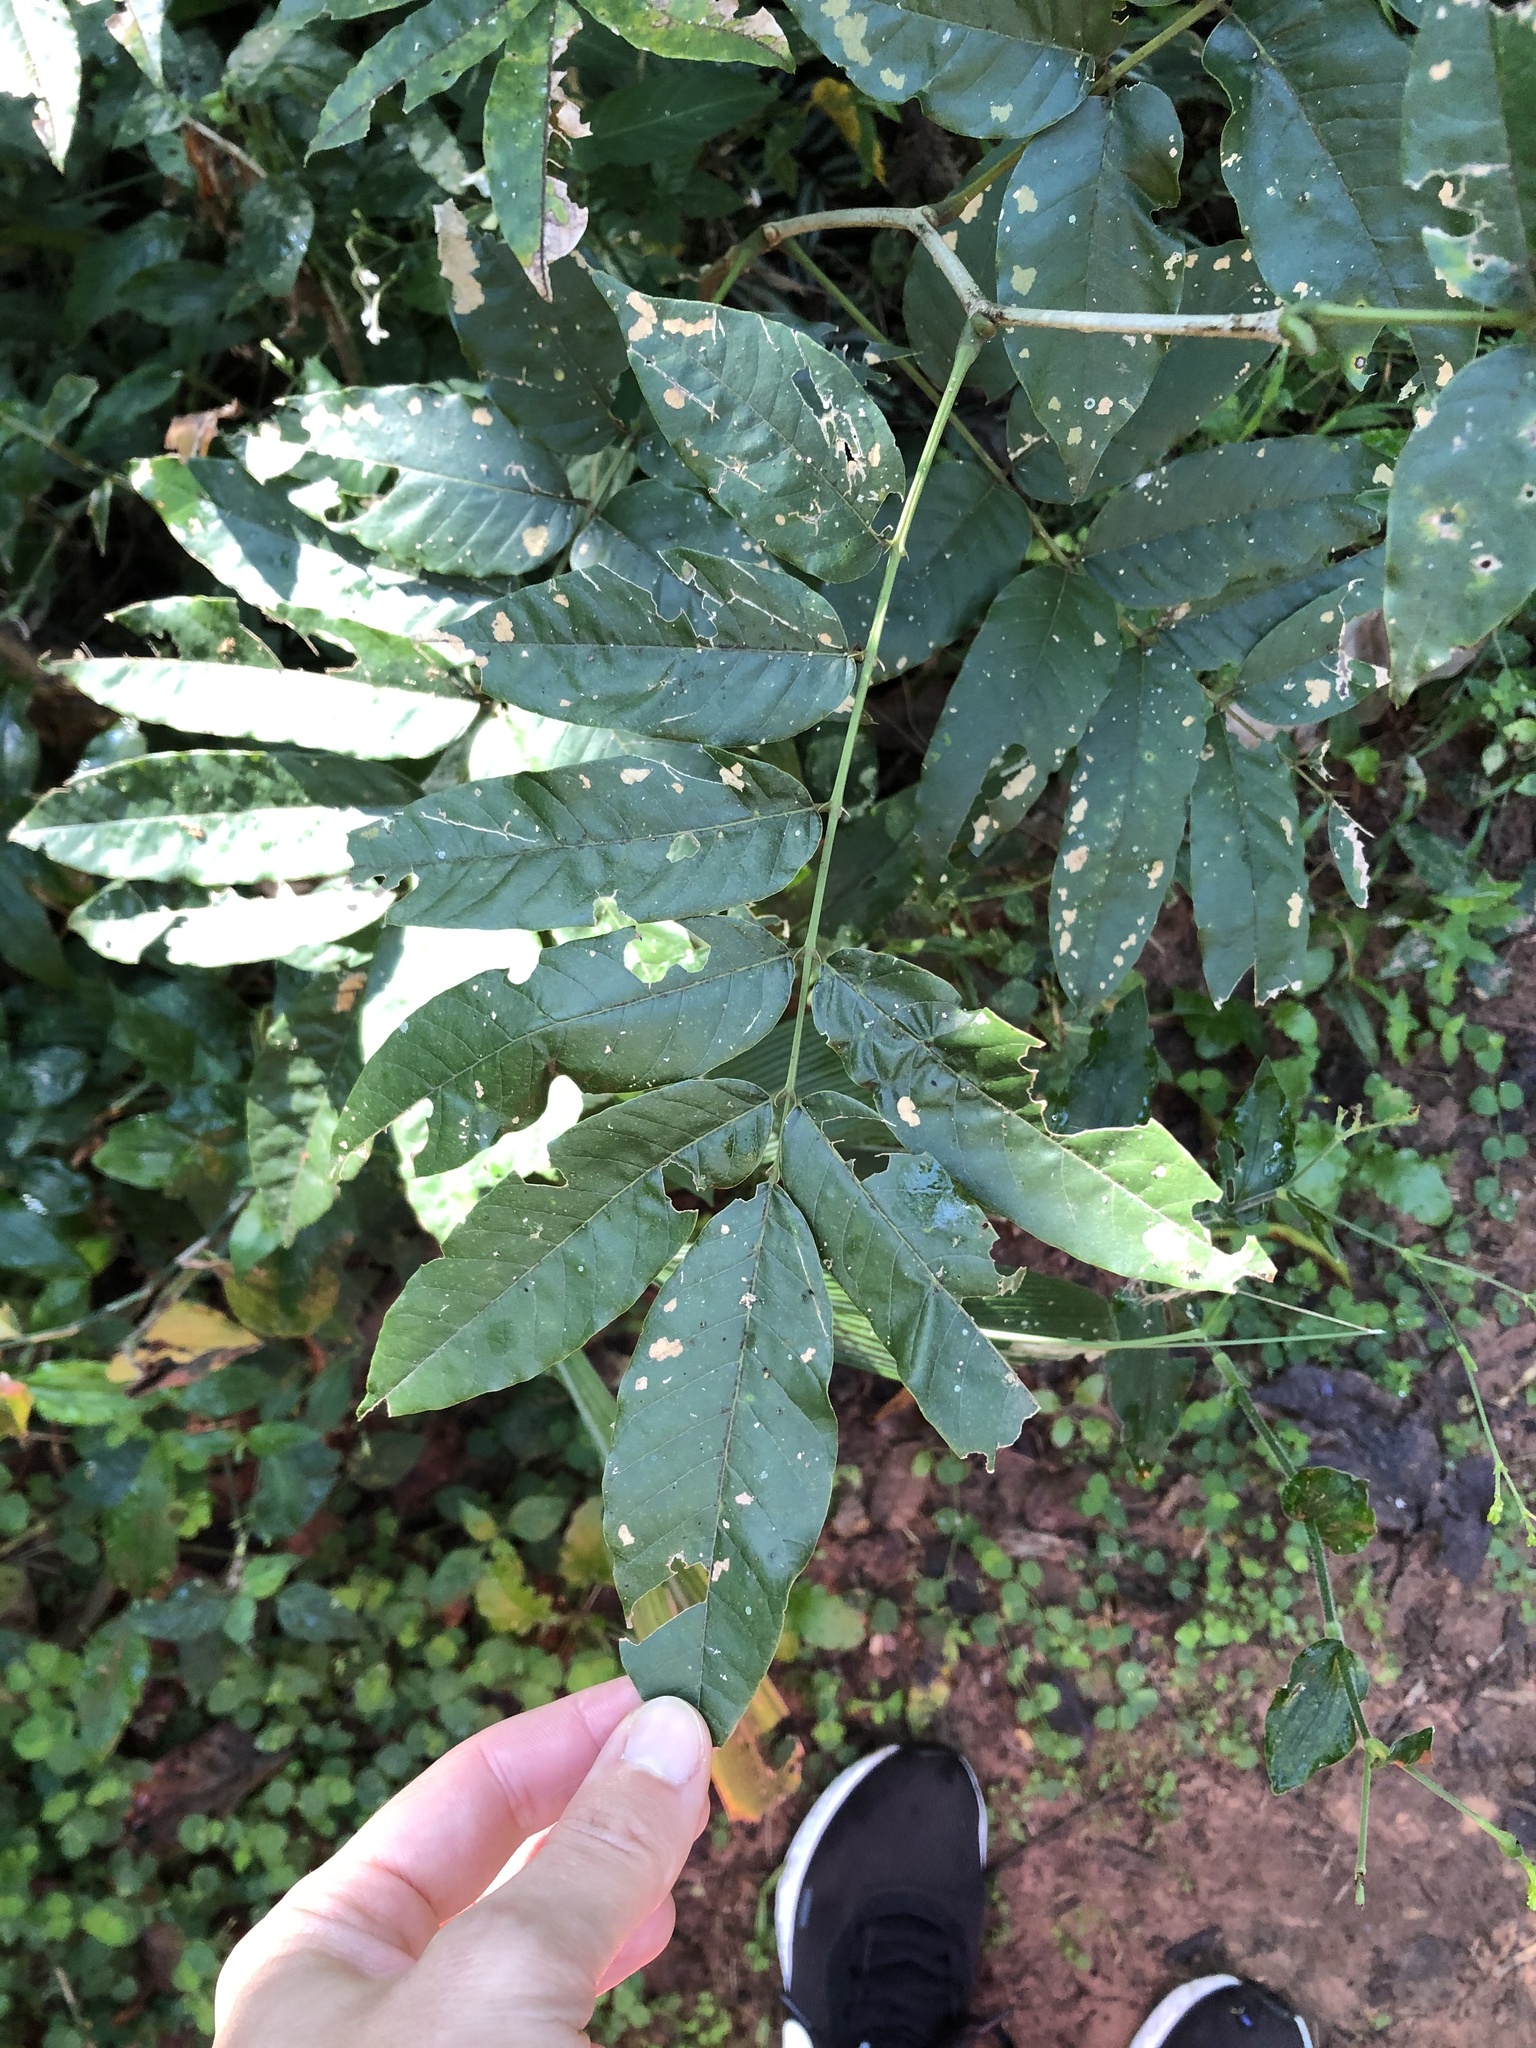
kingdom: Plantae
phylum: Tracheophyta
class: Magnoliopsida
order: Fabales
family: Fabaceae
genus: Millettia
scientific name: Millettia grandis
